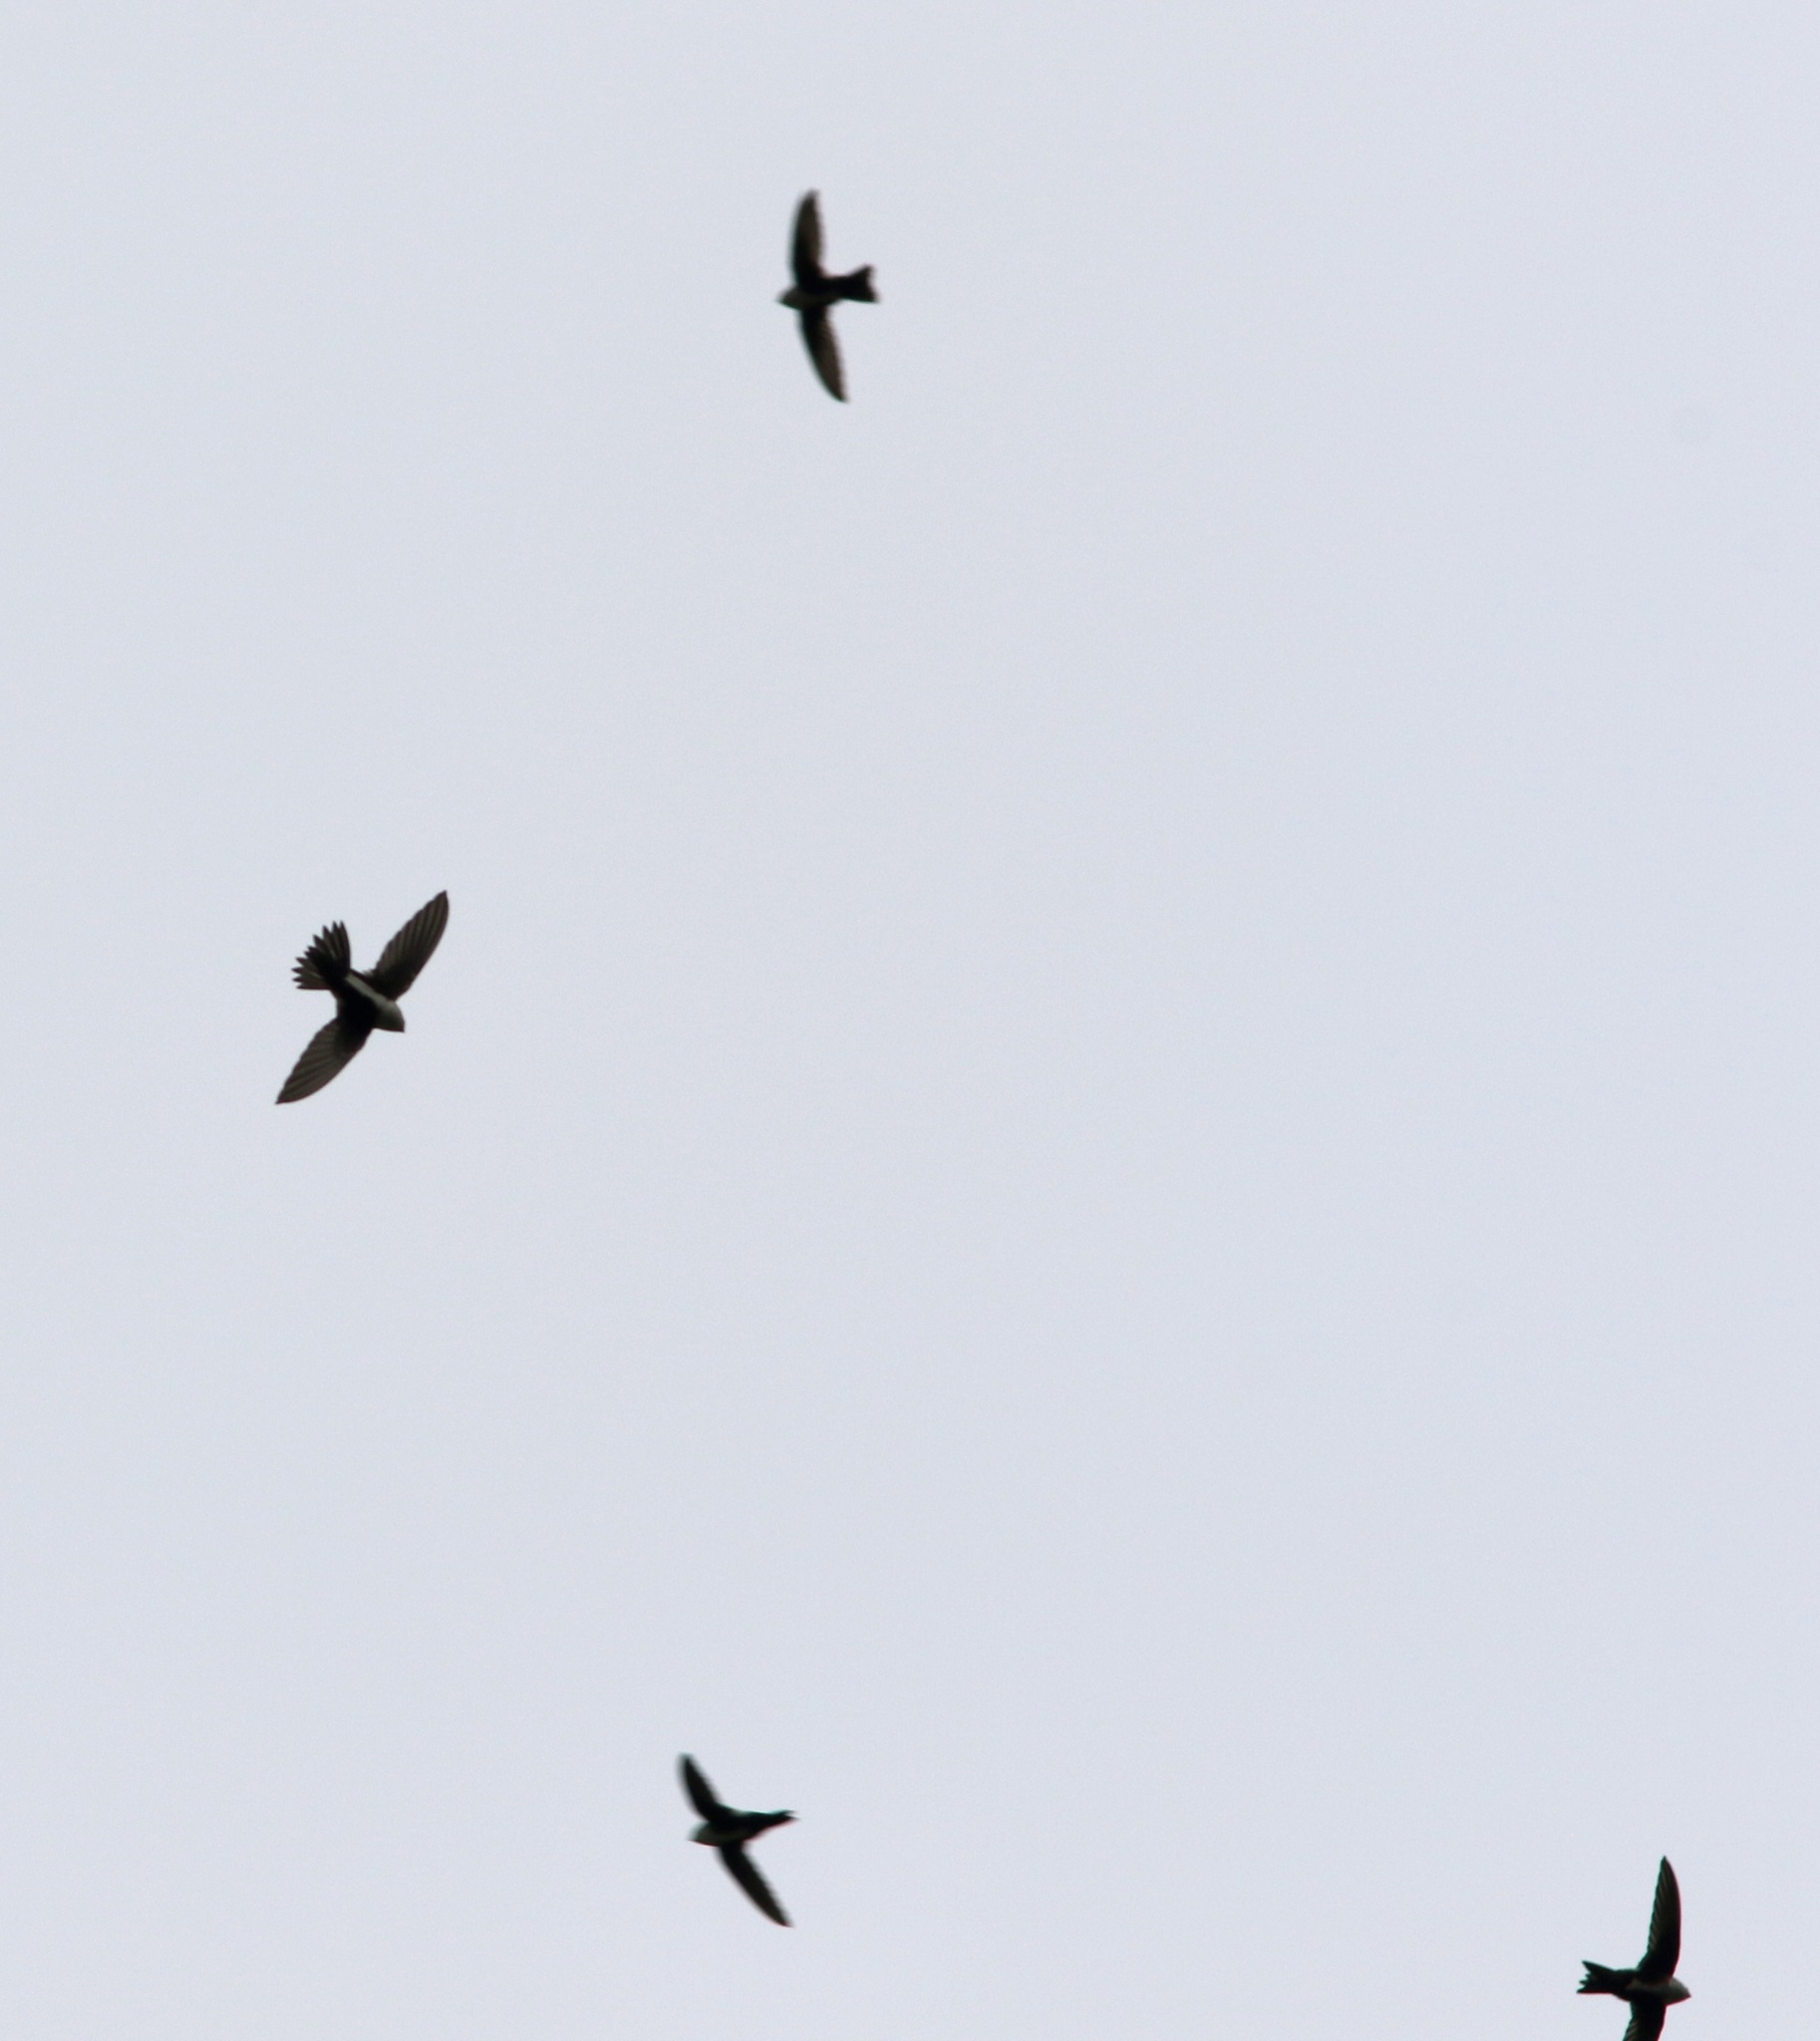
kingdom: Animalia
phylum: Chordata
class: Aves
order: Apodiformes
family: Apodidae
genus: Aeronautes
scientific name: Aeronautes saxatalis
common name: White-throated swift
